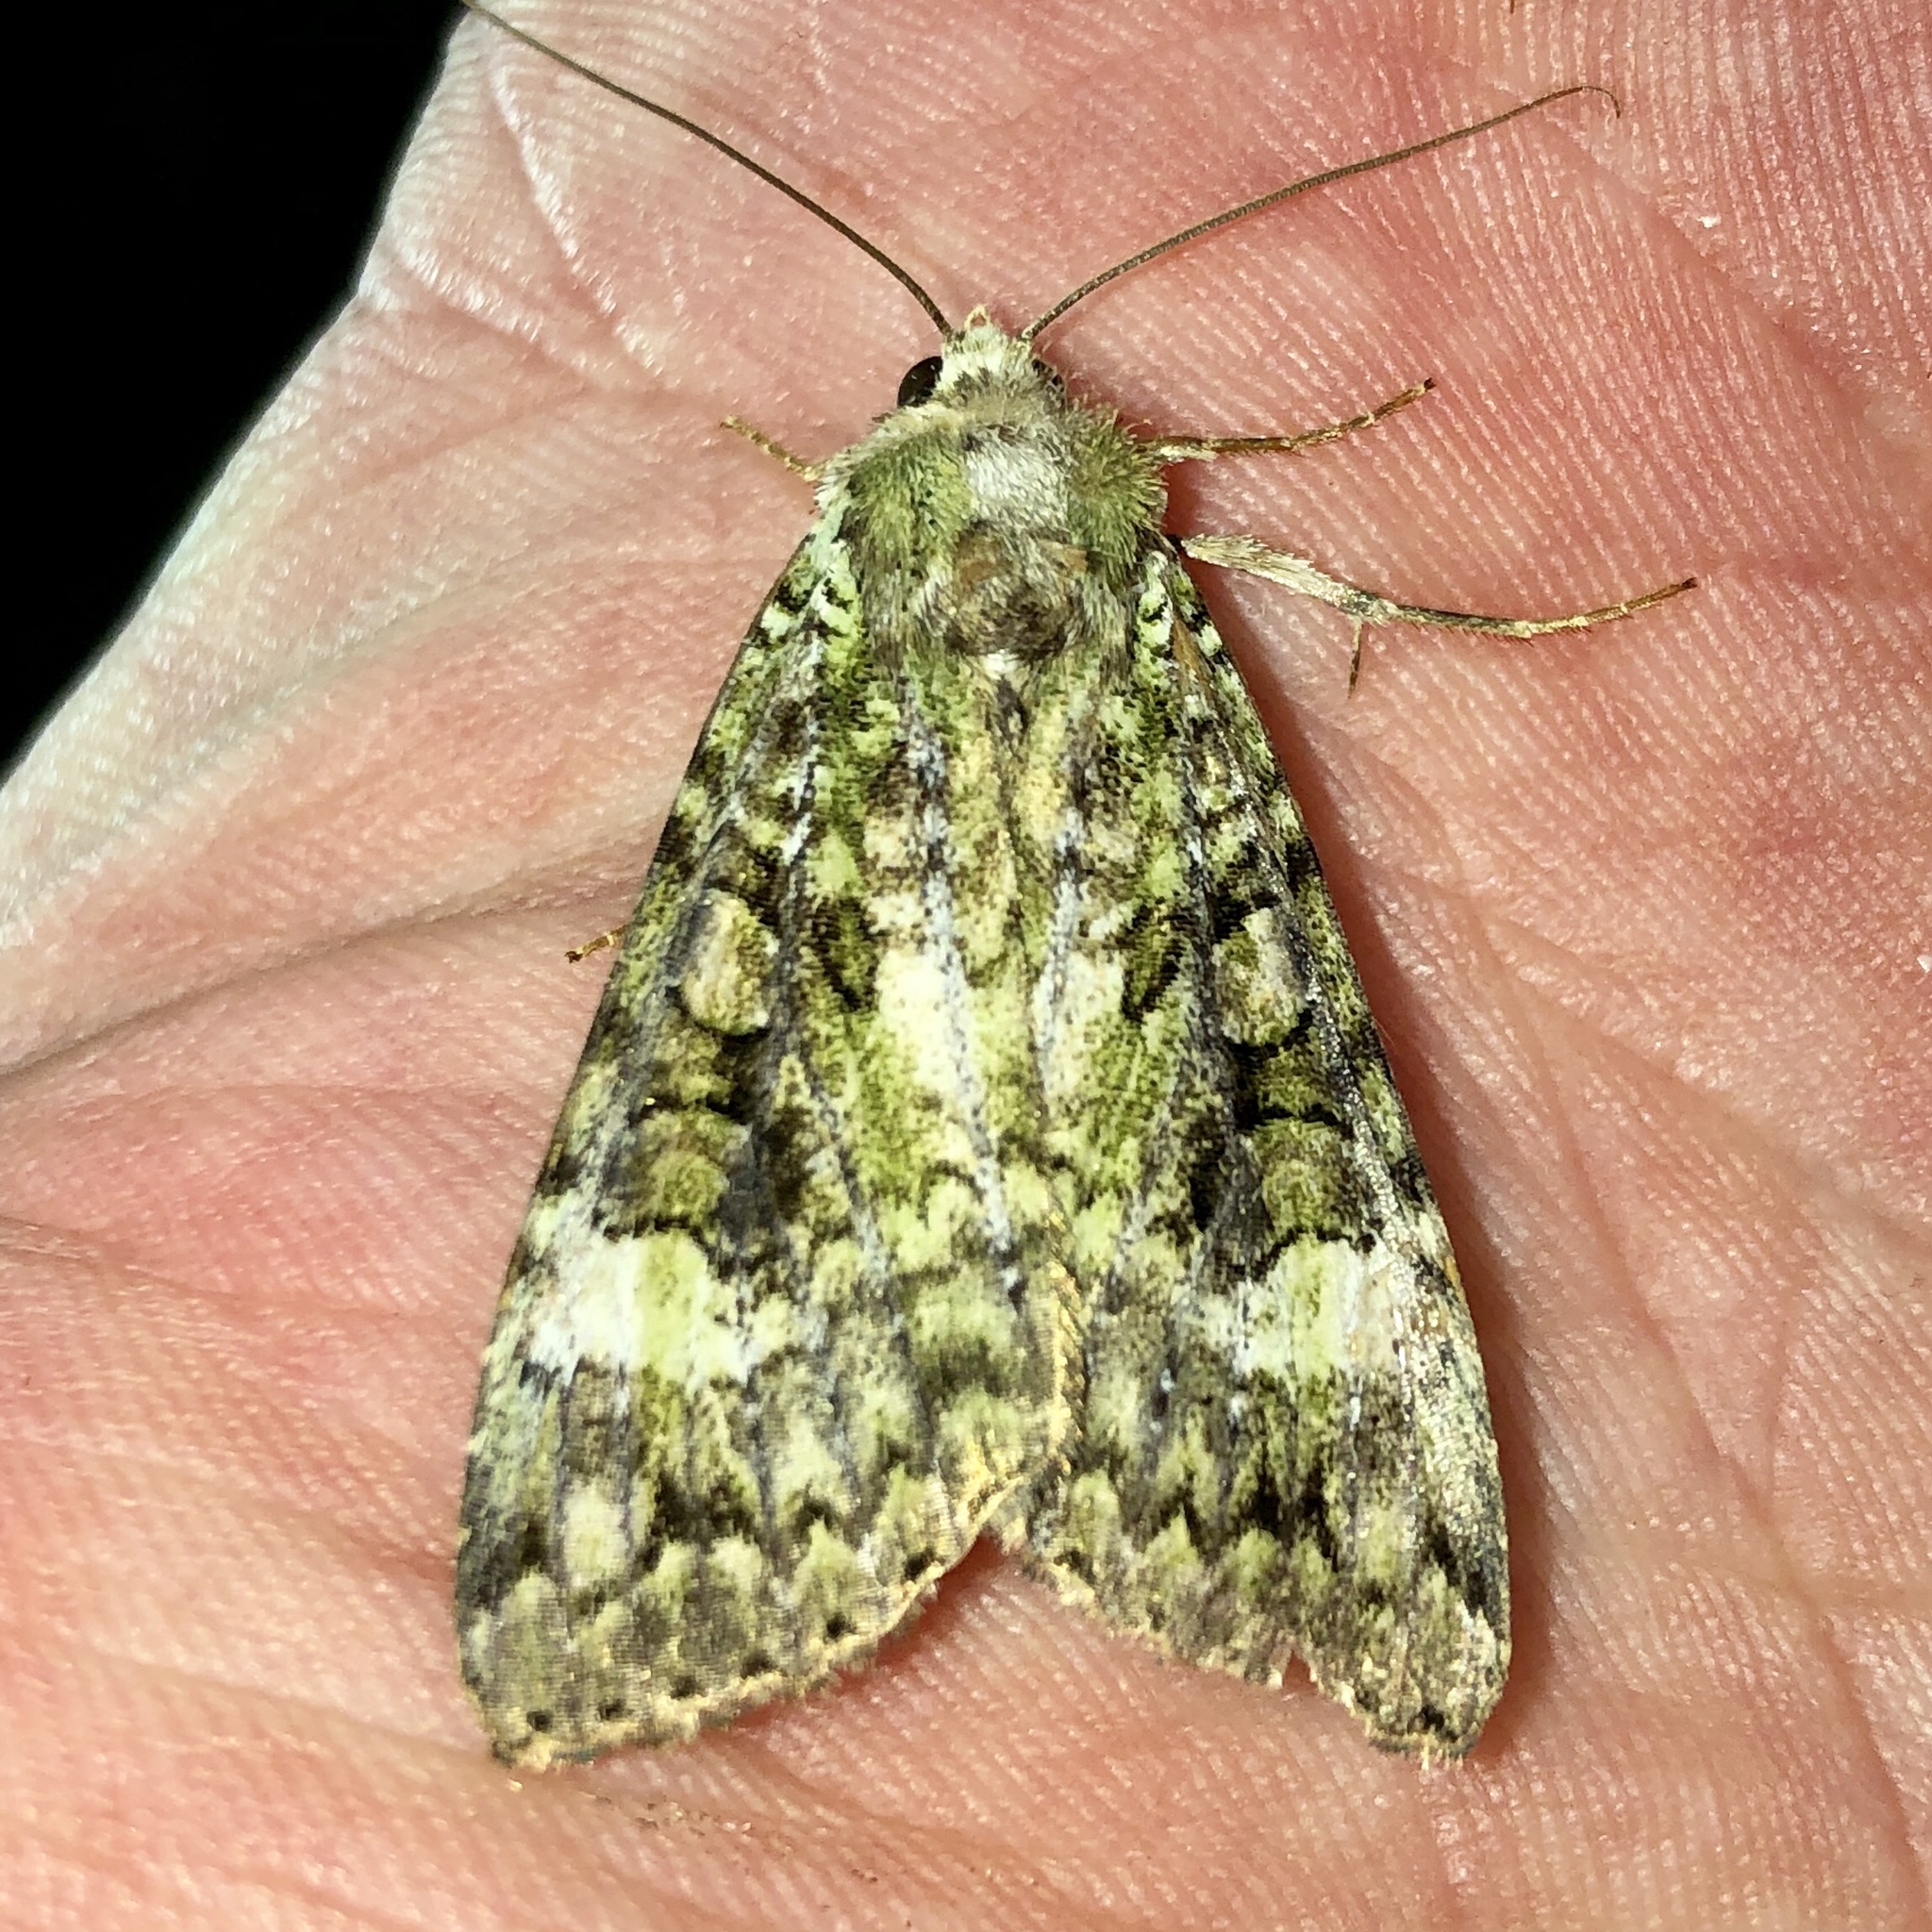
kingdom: Animalia
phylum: Arthropoda
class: Insecta
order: Lepidoptera
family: Noctuidae
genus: Anaplectoides
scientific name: Anaplectoides prasina
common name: Green arches
